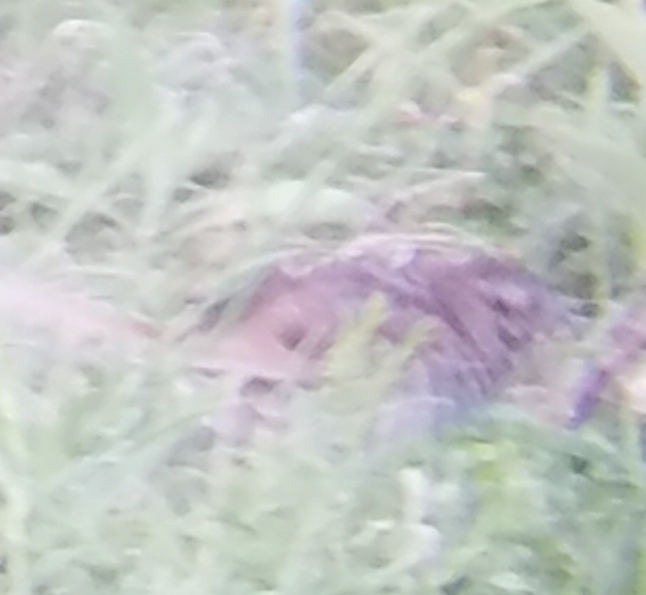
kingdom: Animalia
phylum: Chordata
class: Aves
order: Passeriformes
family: Passerellidae
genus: Melospiza
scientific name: Melospiza melodia
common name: Song sparrow
